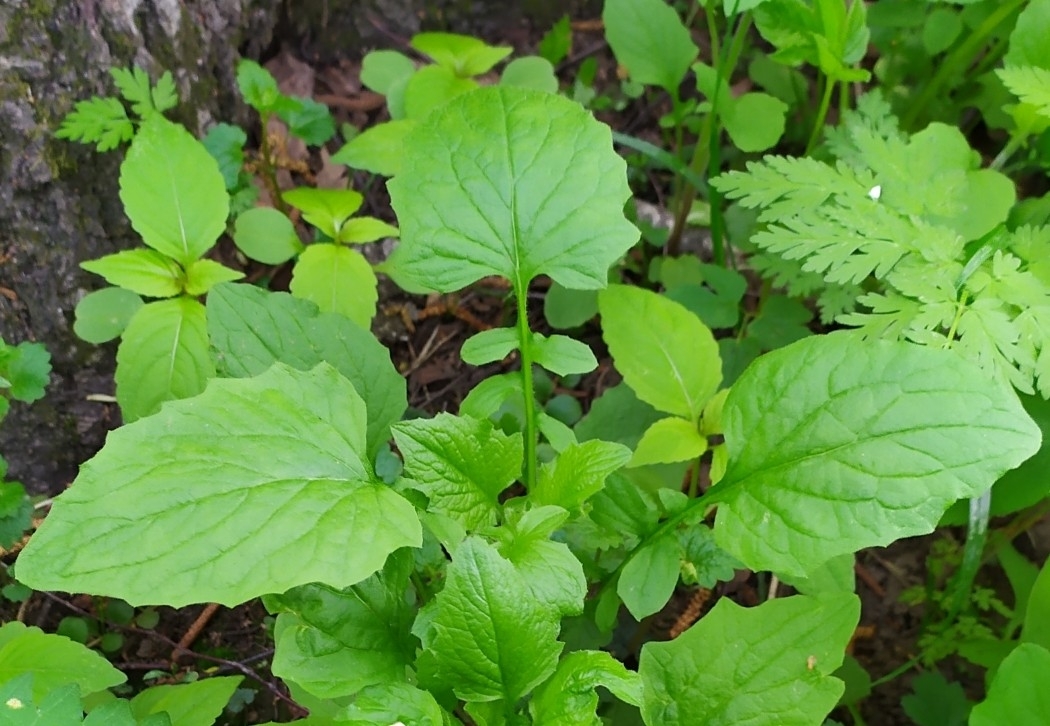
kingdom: Plantae
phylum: Tracheophyta
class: Magnoliopsida
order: Asterales
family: Asteraceae
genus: Lapsana
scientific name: Lapsana communis
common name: Nipplewort
